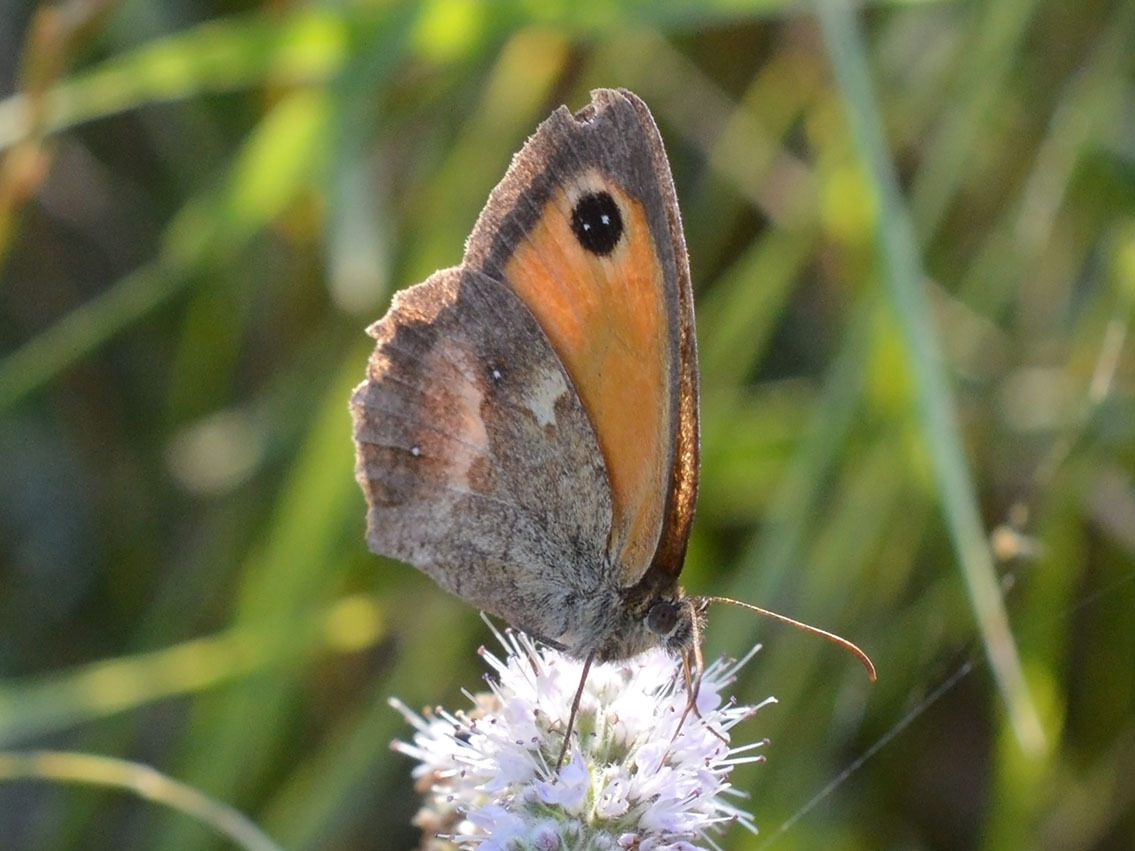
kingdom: Animalia
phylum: Arthropoda
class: Insecta
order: Lepidoptera
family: Nymphalidae
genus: Pyronia
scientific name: Pyronia tithonus
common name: Gatekeeper
